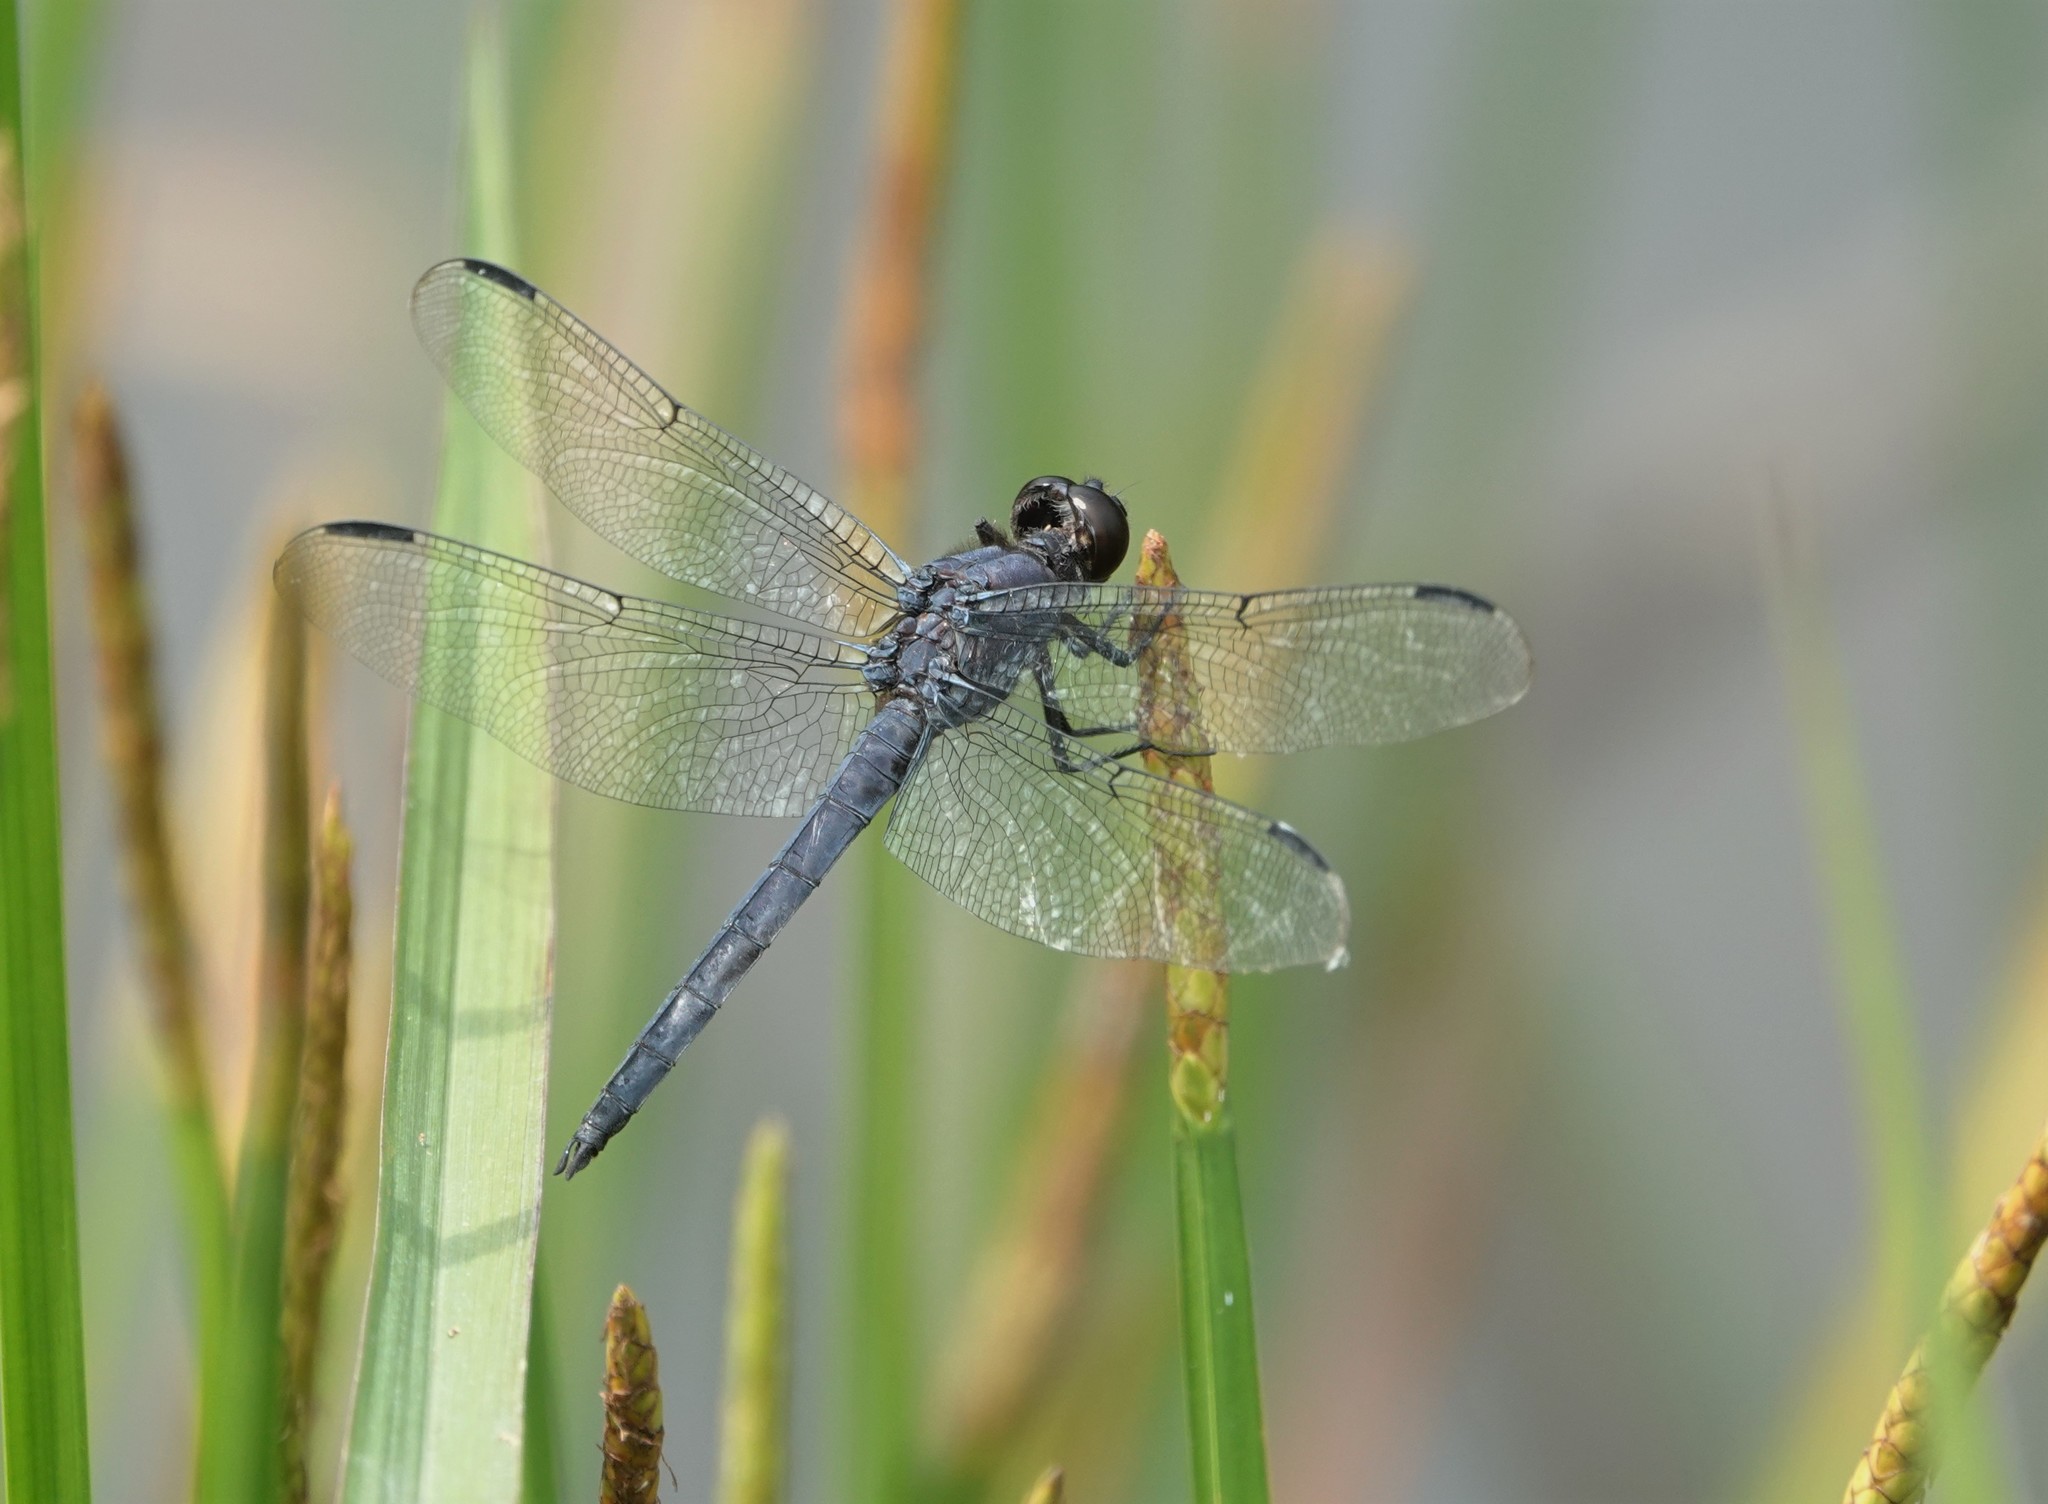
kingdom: Animalia
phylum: Arthropoda
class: Insecta
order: Odonata
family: Libellulidae
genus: Libellula
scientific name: Libellula incesta
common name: Slaty skimmer
